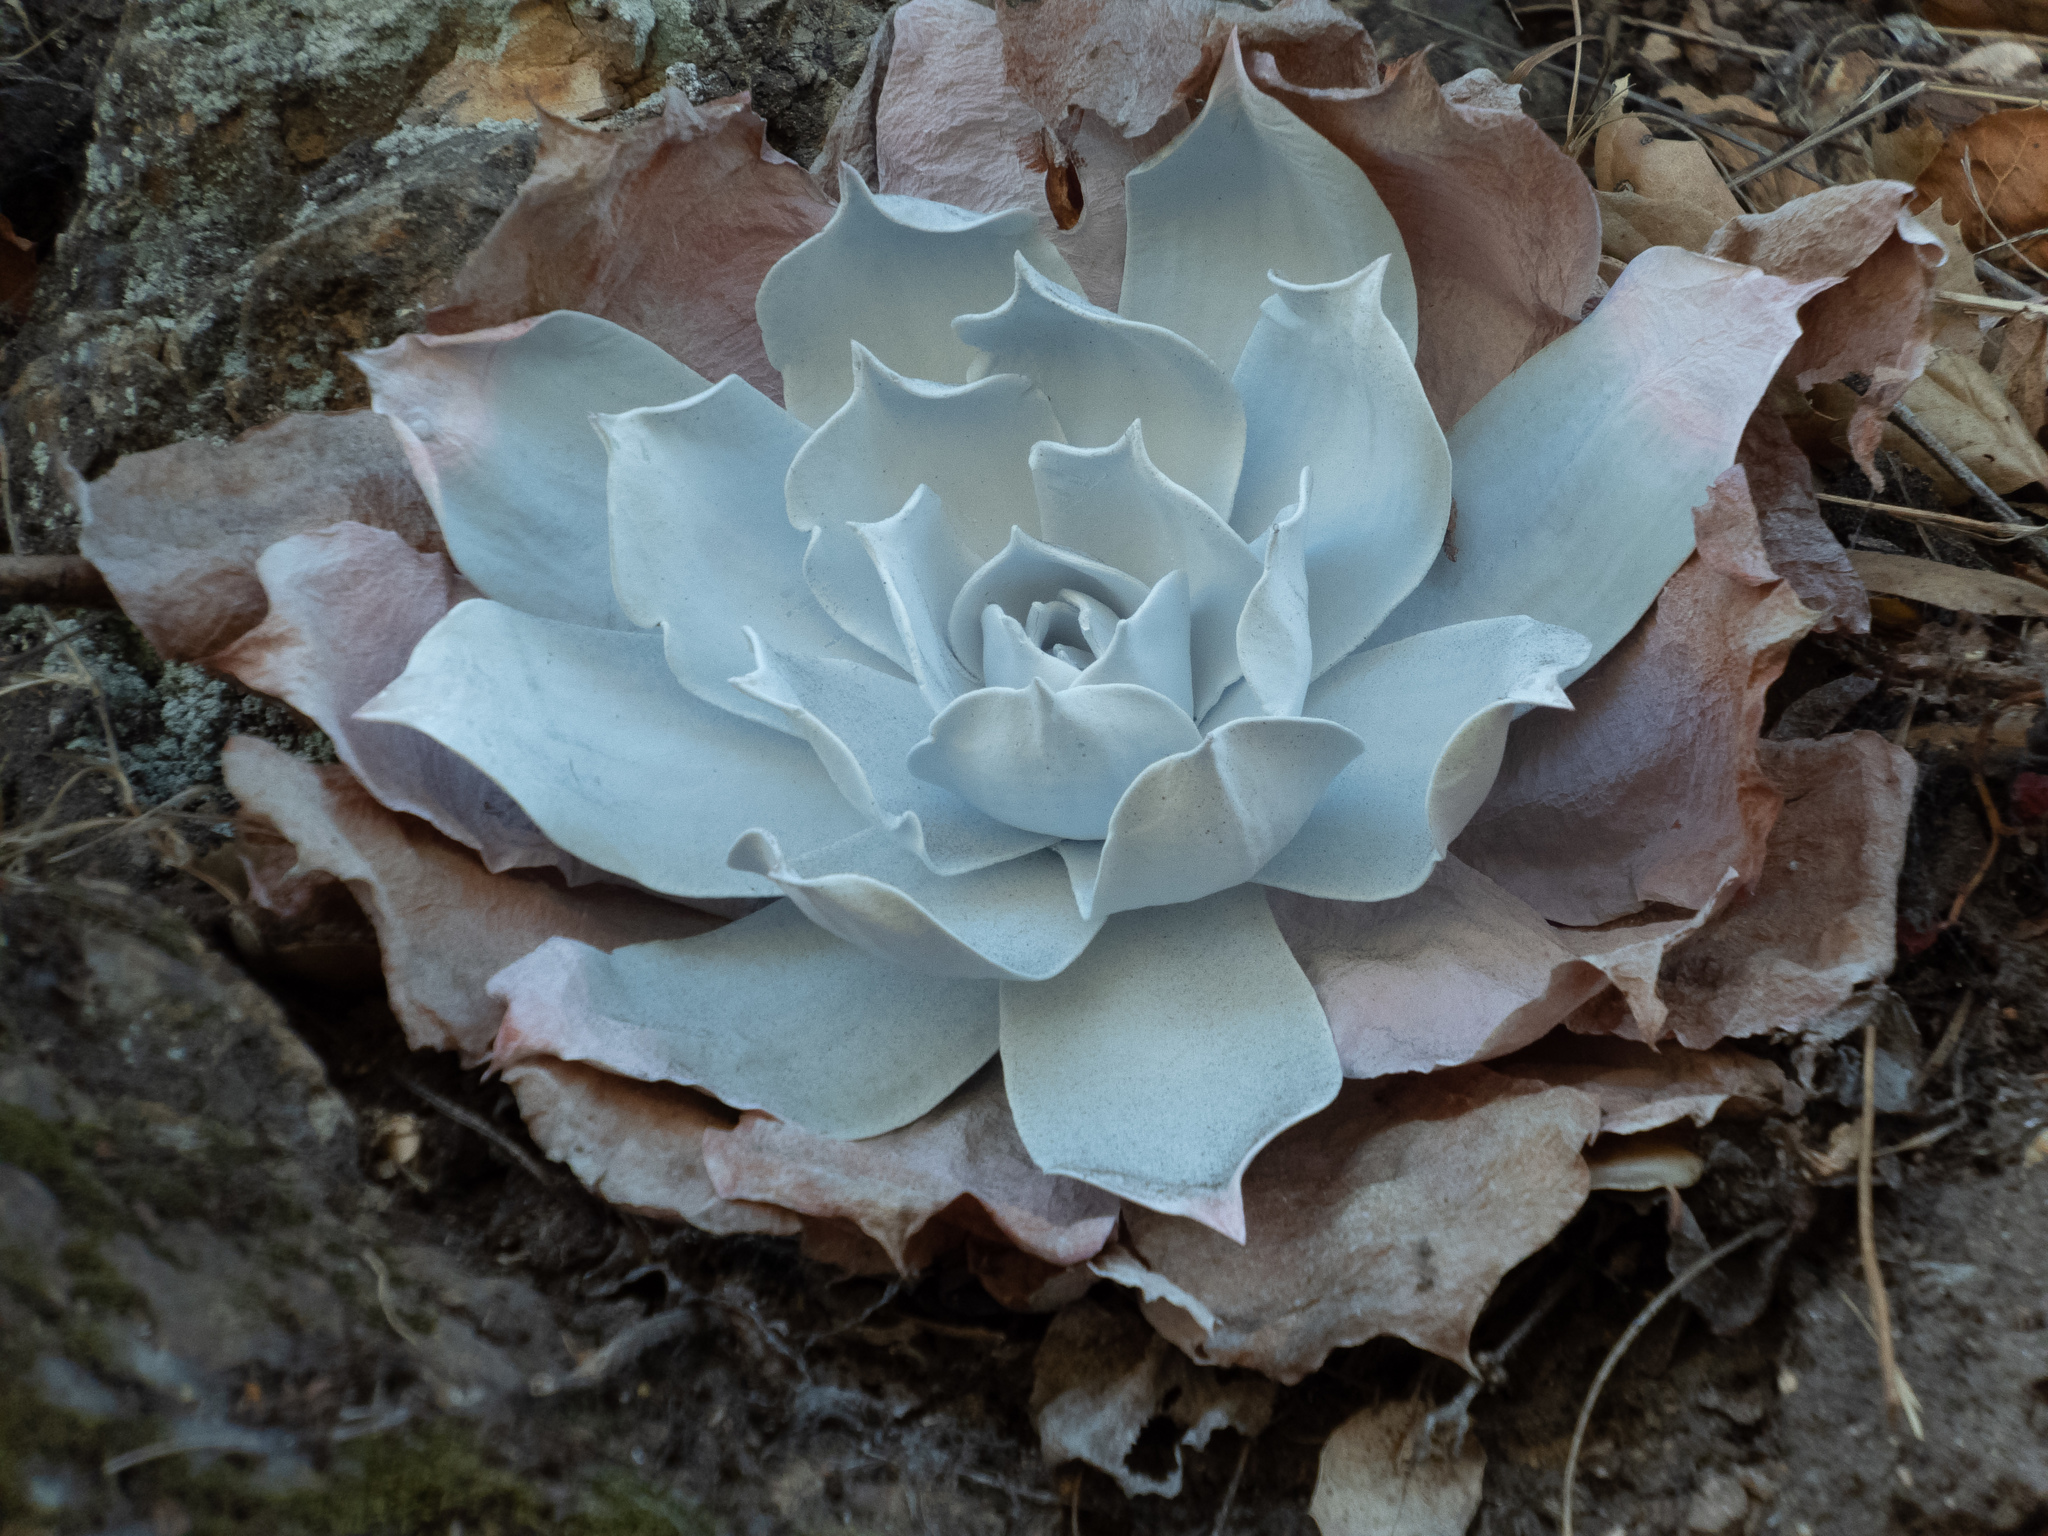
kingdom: Plantae
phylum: Tracheophyta
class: Magnoliopsida
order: Saxifragales
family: Crassulaceae
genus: Dudleya
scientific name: Dudleya pulverulenta
